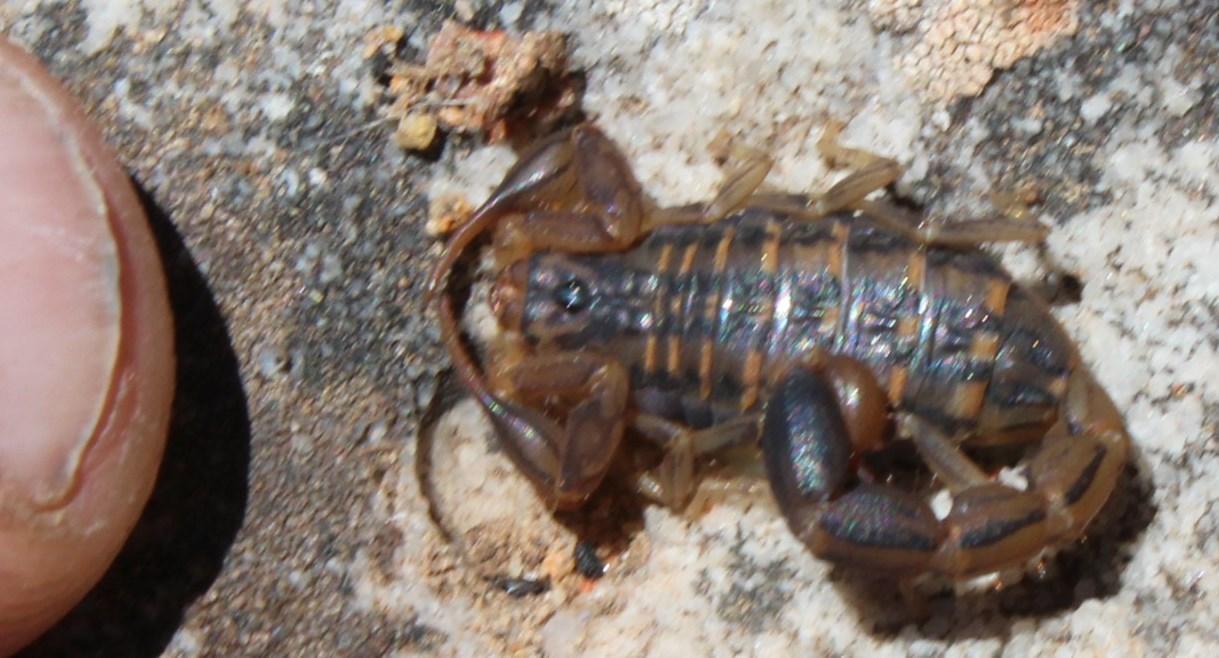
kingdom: Animalia
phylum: Arthropoda
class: Arachnida
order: Scorpiones
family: Buthidae
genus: Uroplectes
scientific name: Uroplectes lineatus
